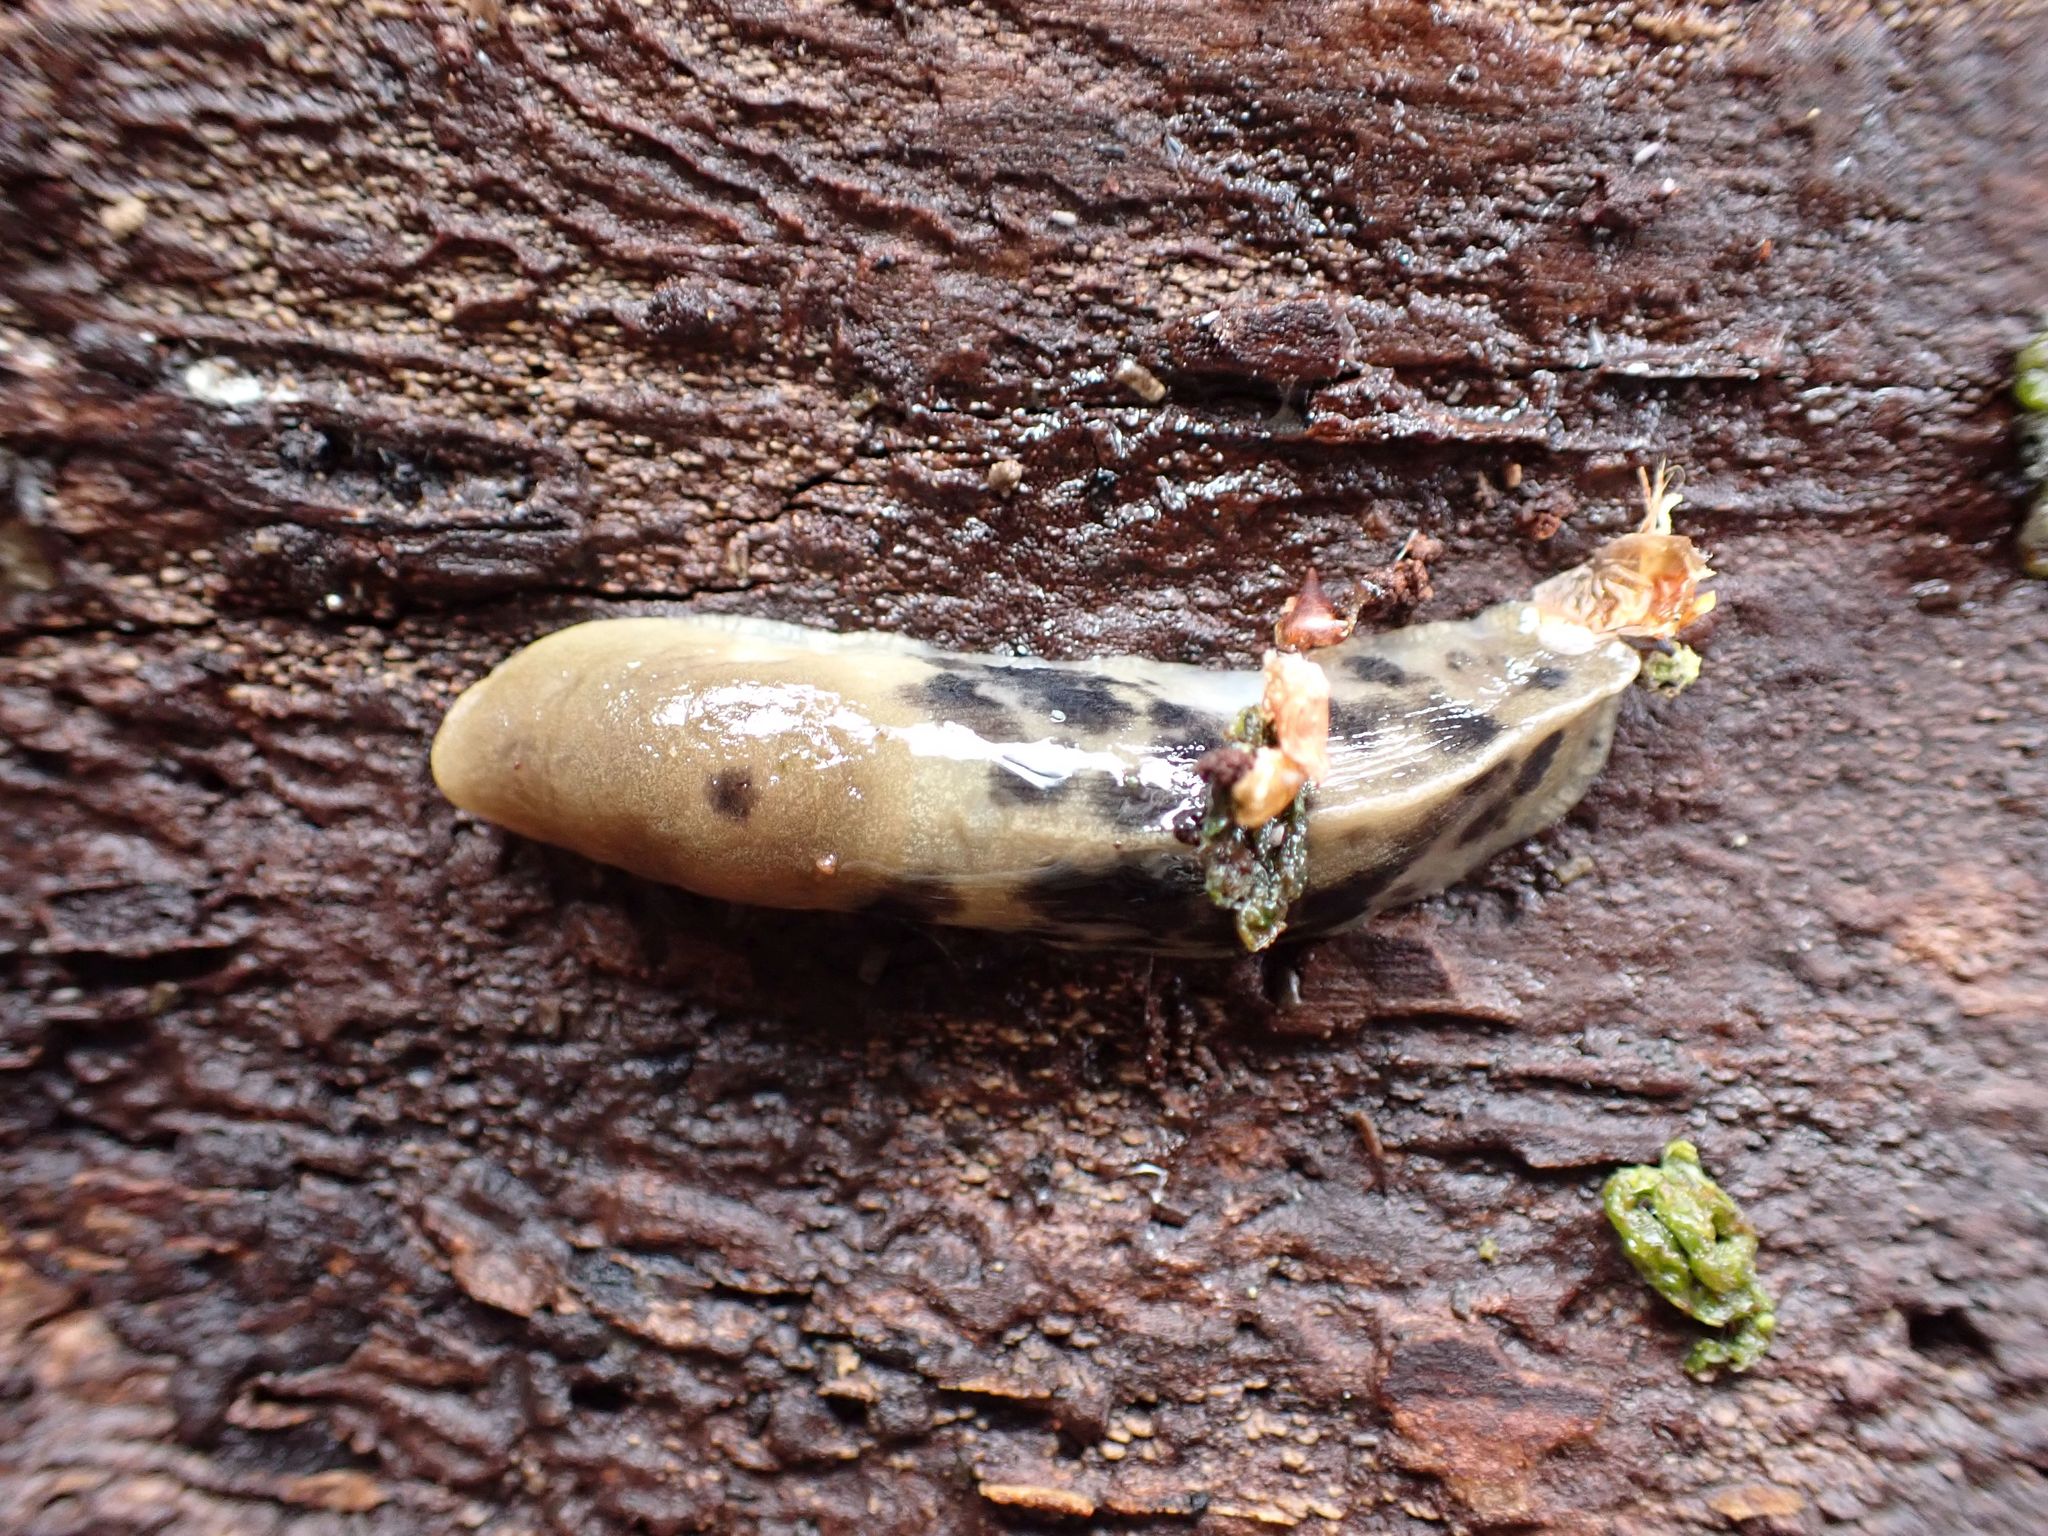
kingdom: Animalia
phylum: Mollusca
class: Gastropoda
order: Stylommatophora
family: Ariolimacidae
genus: Ariolimax
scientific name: Ariolimax columbianus
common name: Pacific banana slug
